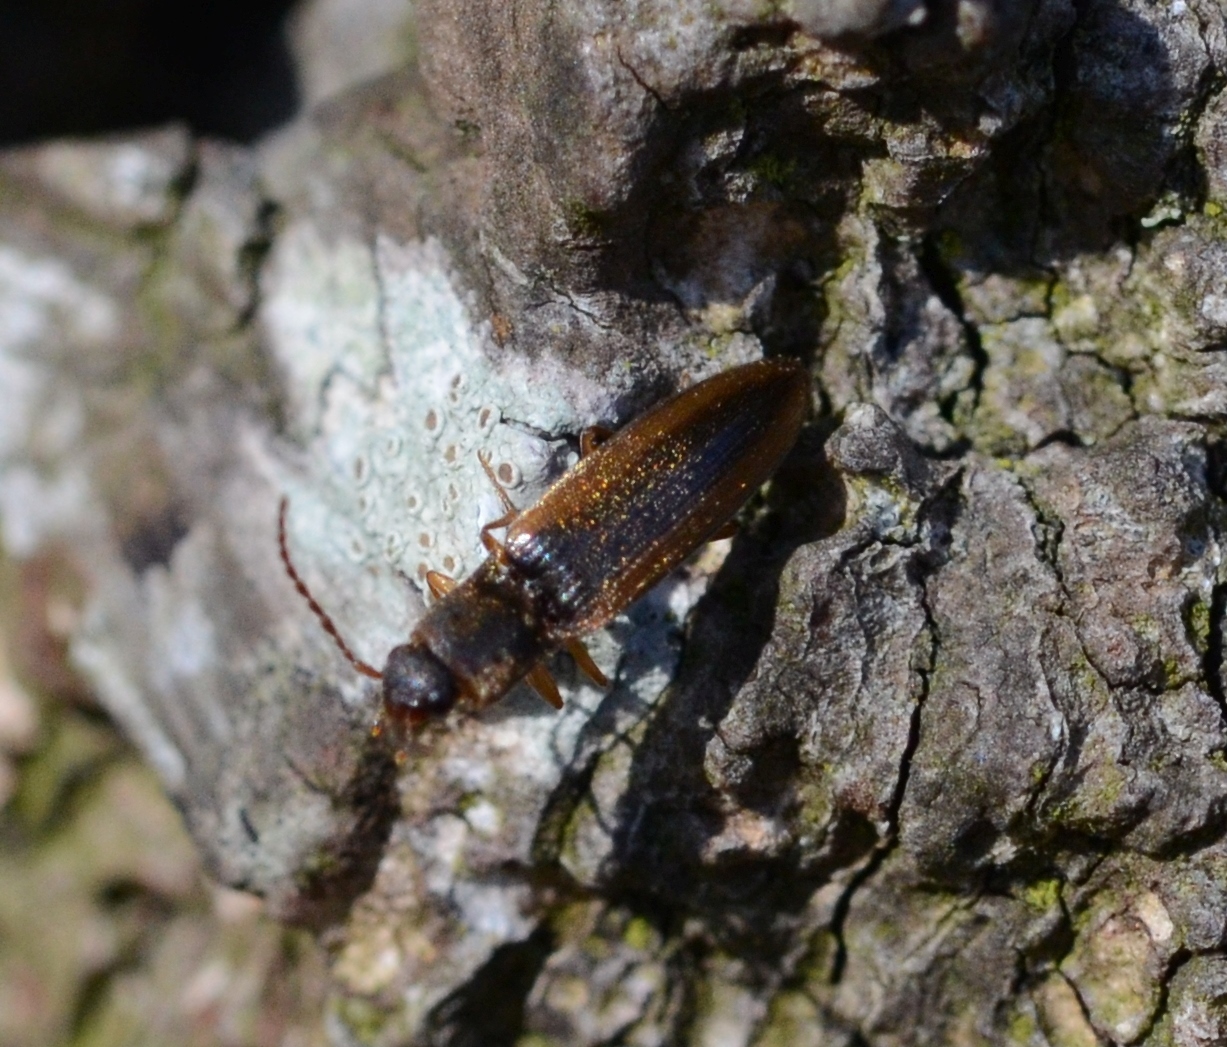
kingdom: Animalia
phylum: Arthropoda
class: Insecta
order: Coleoptera
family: Elateridae
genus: Dalopius
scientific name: Dalopius marginatus
